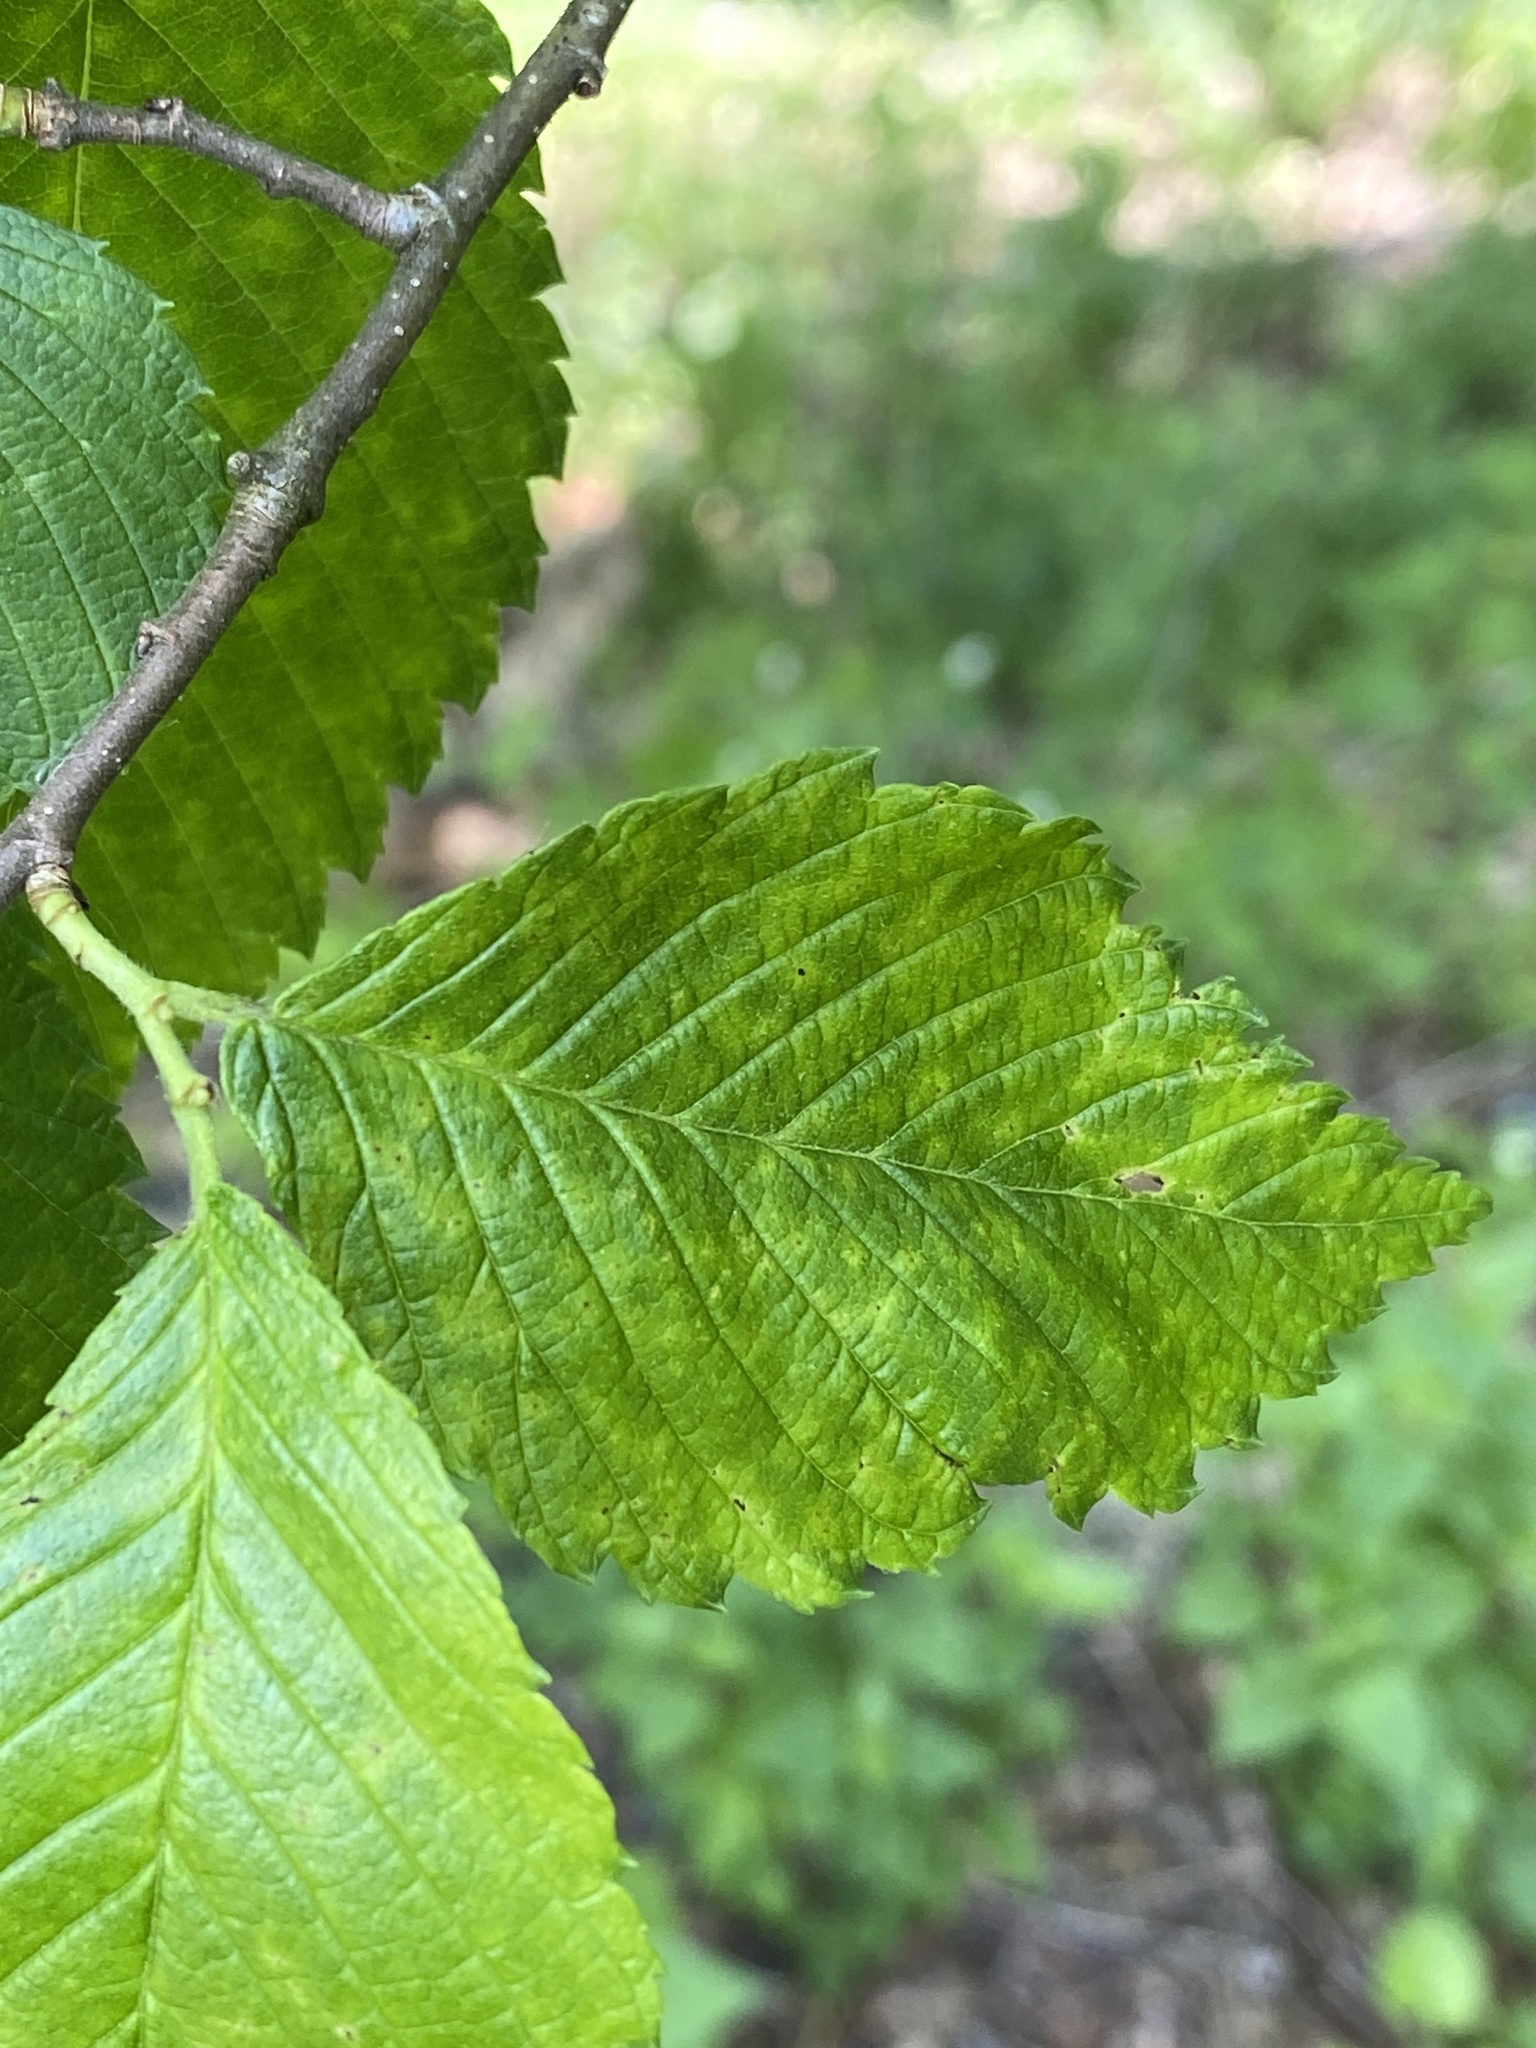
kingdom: Animalia
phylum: Arthropoda
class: Arachnida
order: Trombidiformes
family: Eriophyidae
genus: Aceria
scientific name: Aceria
